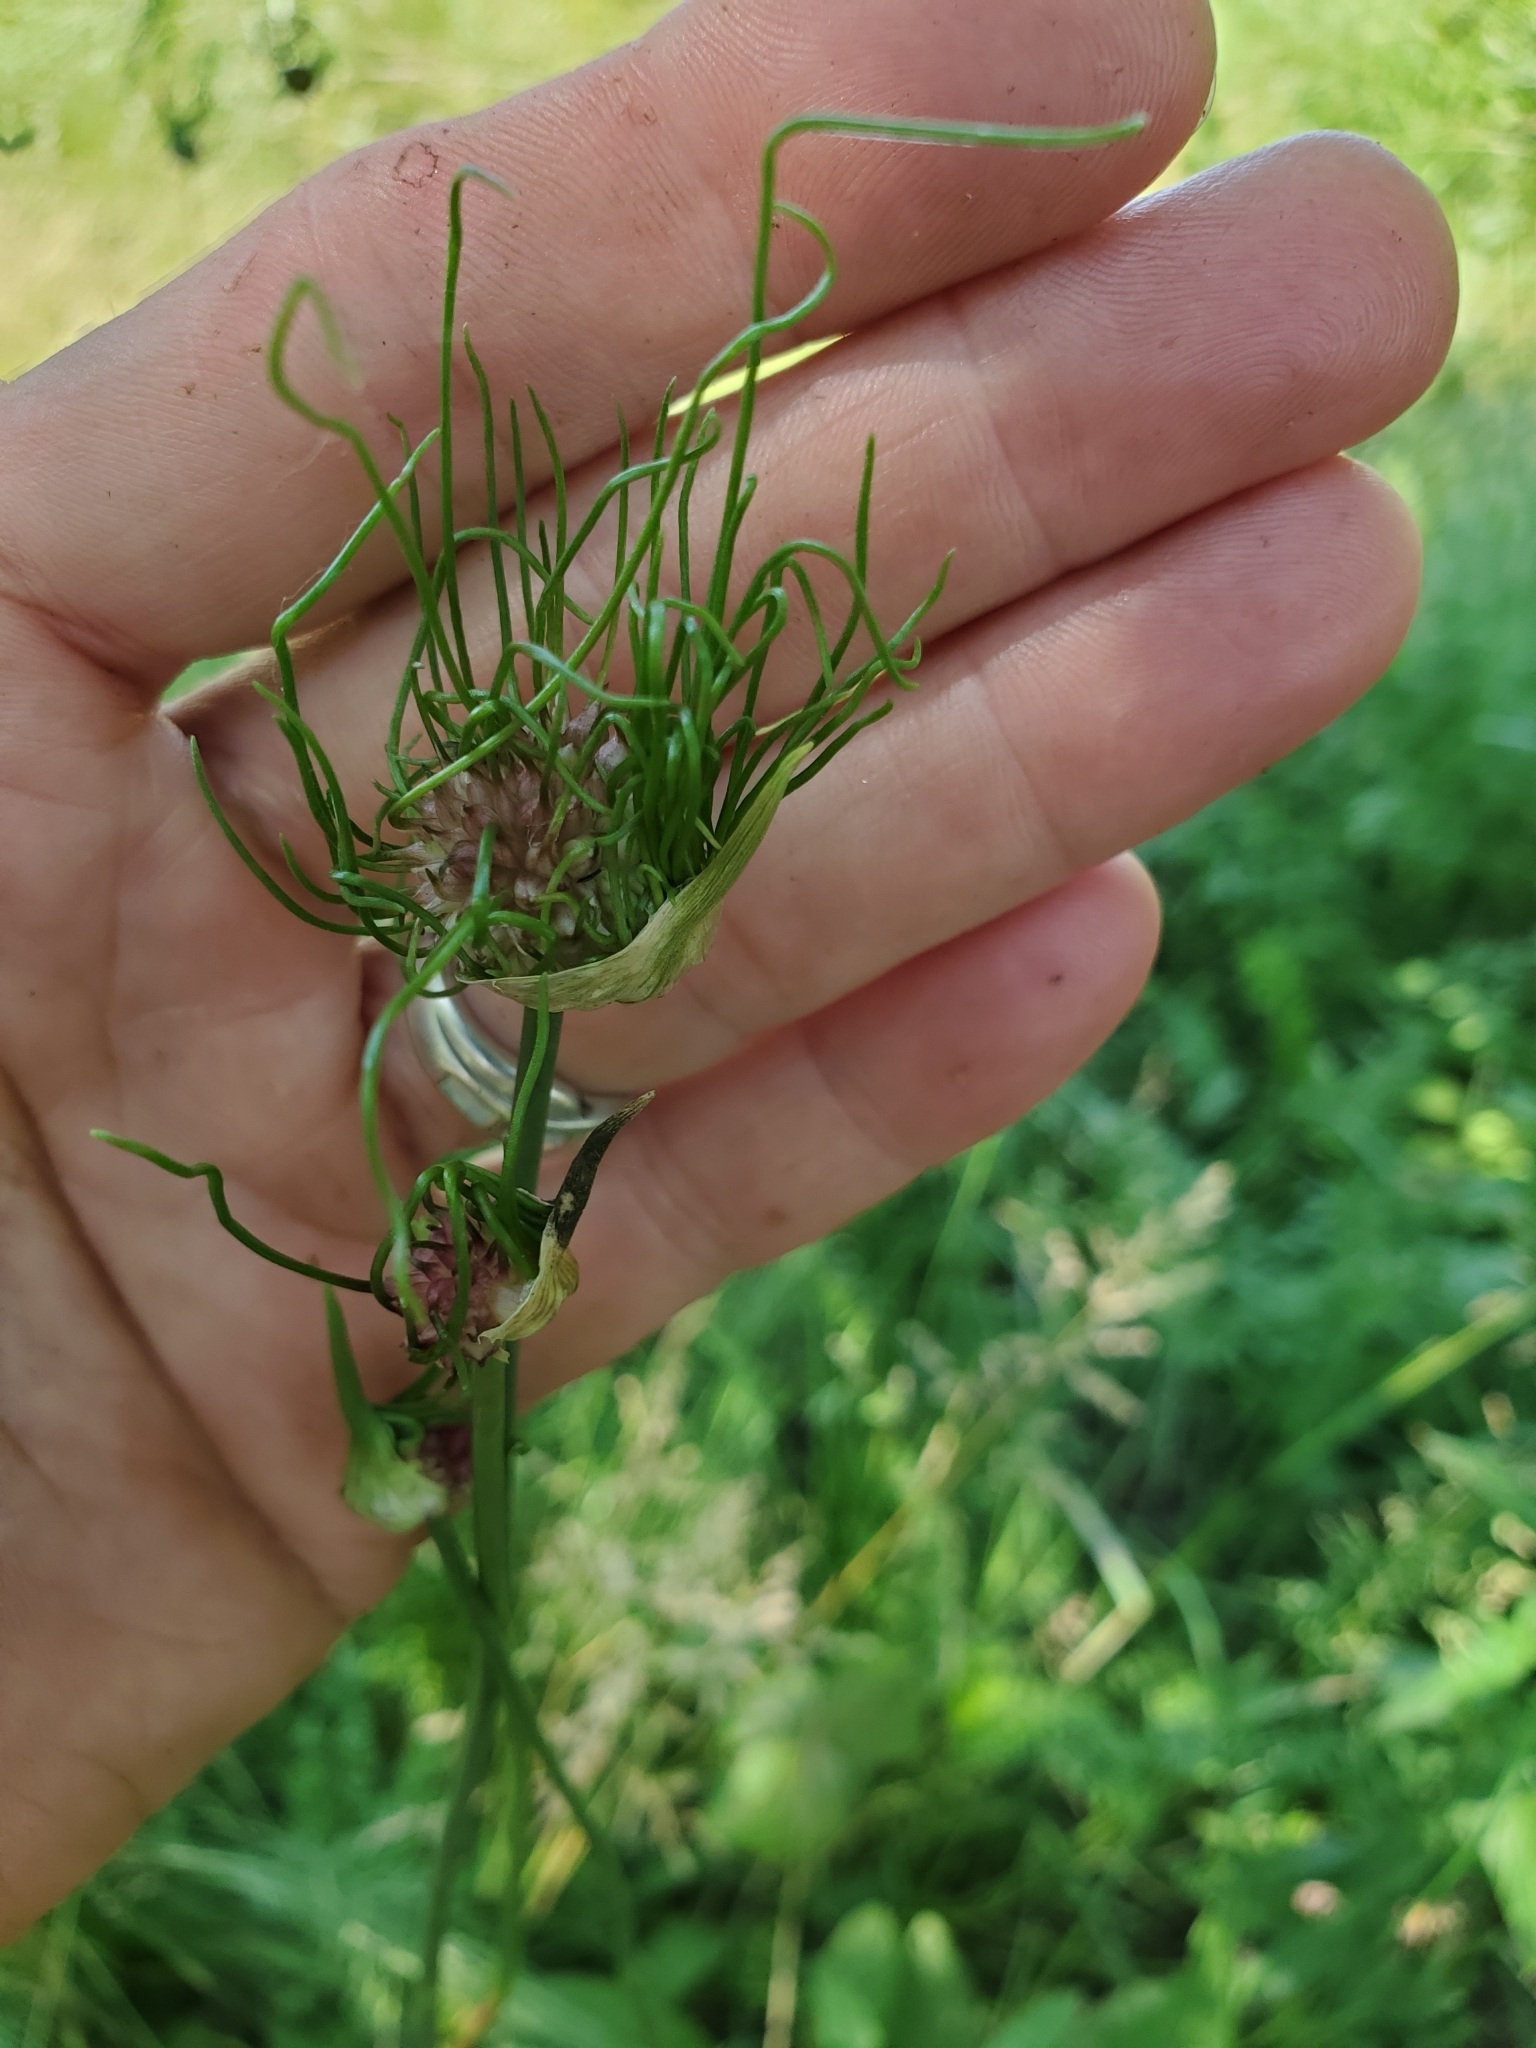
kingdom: Plantae
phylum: Tracheophyta
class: Liliopsida
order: Asparagales
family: Amaryllidaceae
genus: Allium
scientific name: Allium vineale
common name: Crow garlic
